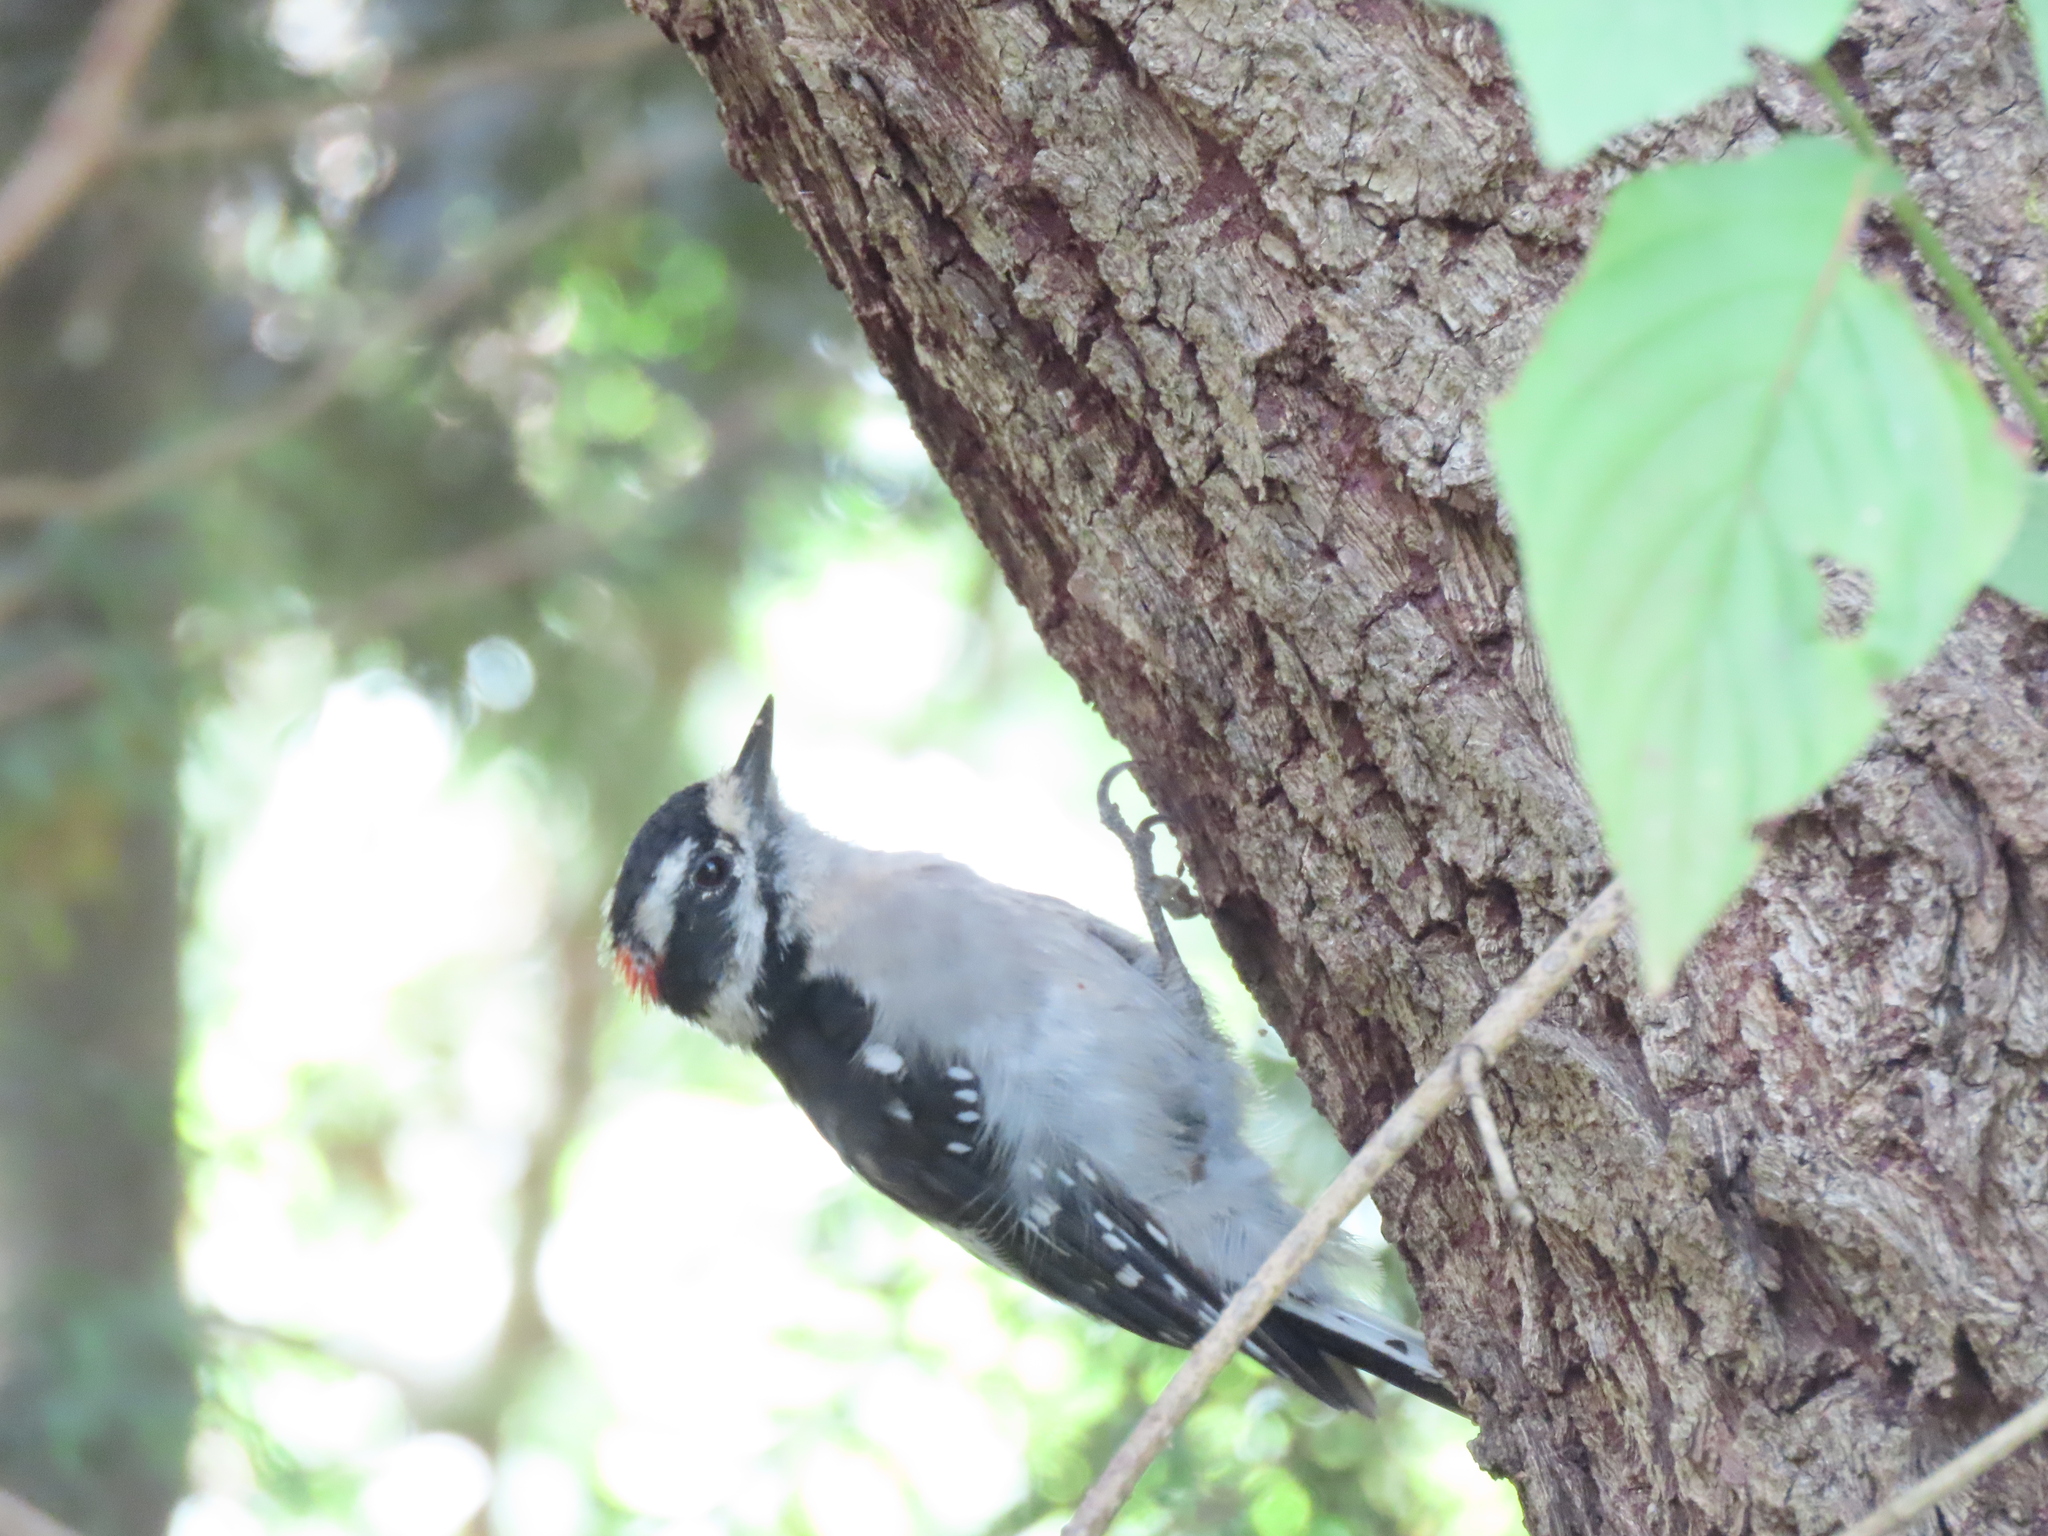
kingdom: Animalia
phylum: Chordata
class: Aves
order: Piciformes
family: Picidae
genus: Dryobates
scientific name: Dryobates pubescens
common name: Downy woodpecker
